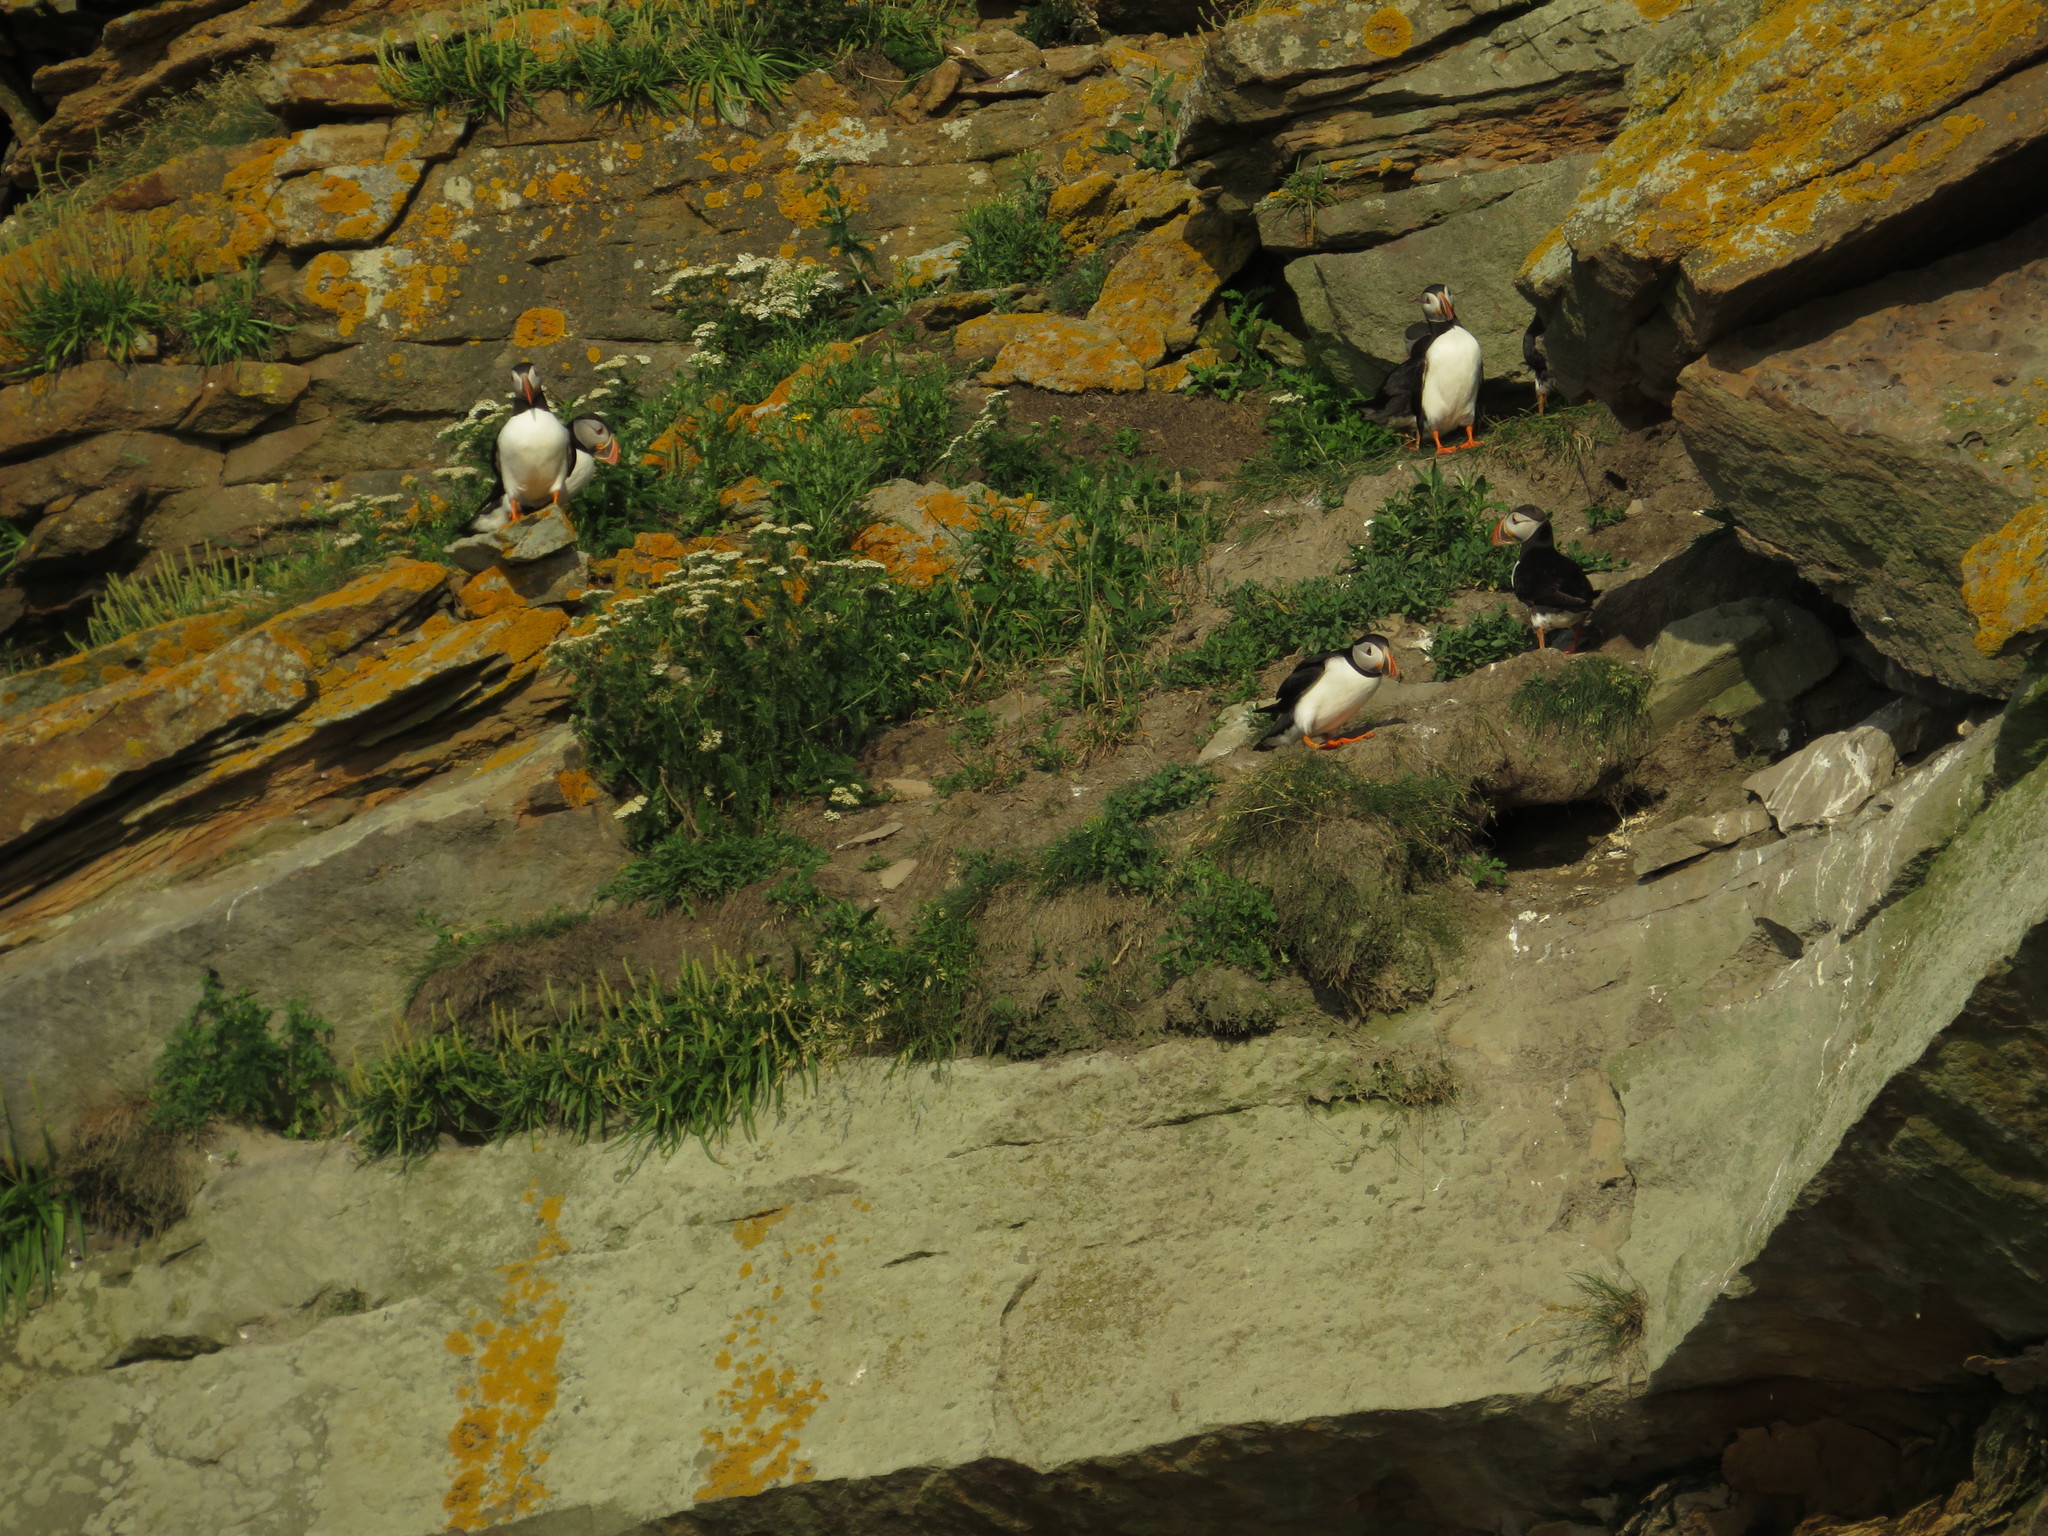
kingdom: Animalia
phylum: Chordata
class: Aves
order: Charadriiformes
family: Alcidae
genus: Fratercula
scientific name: Fratercula arctica
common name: Atlantic puffin
